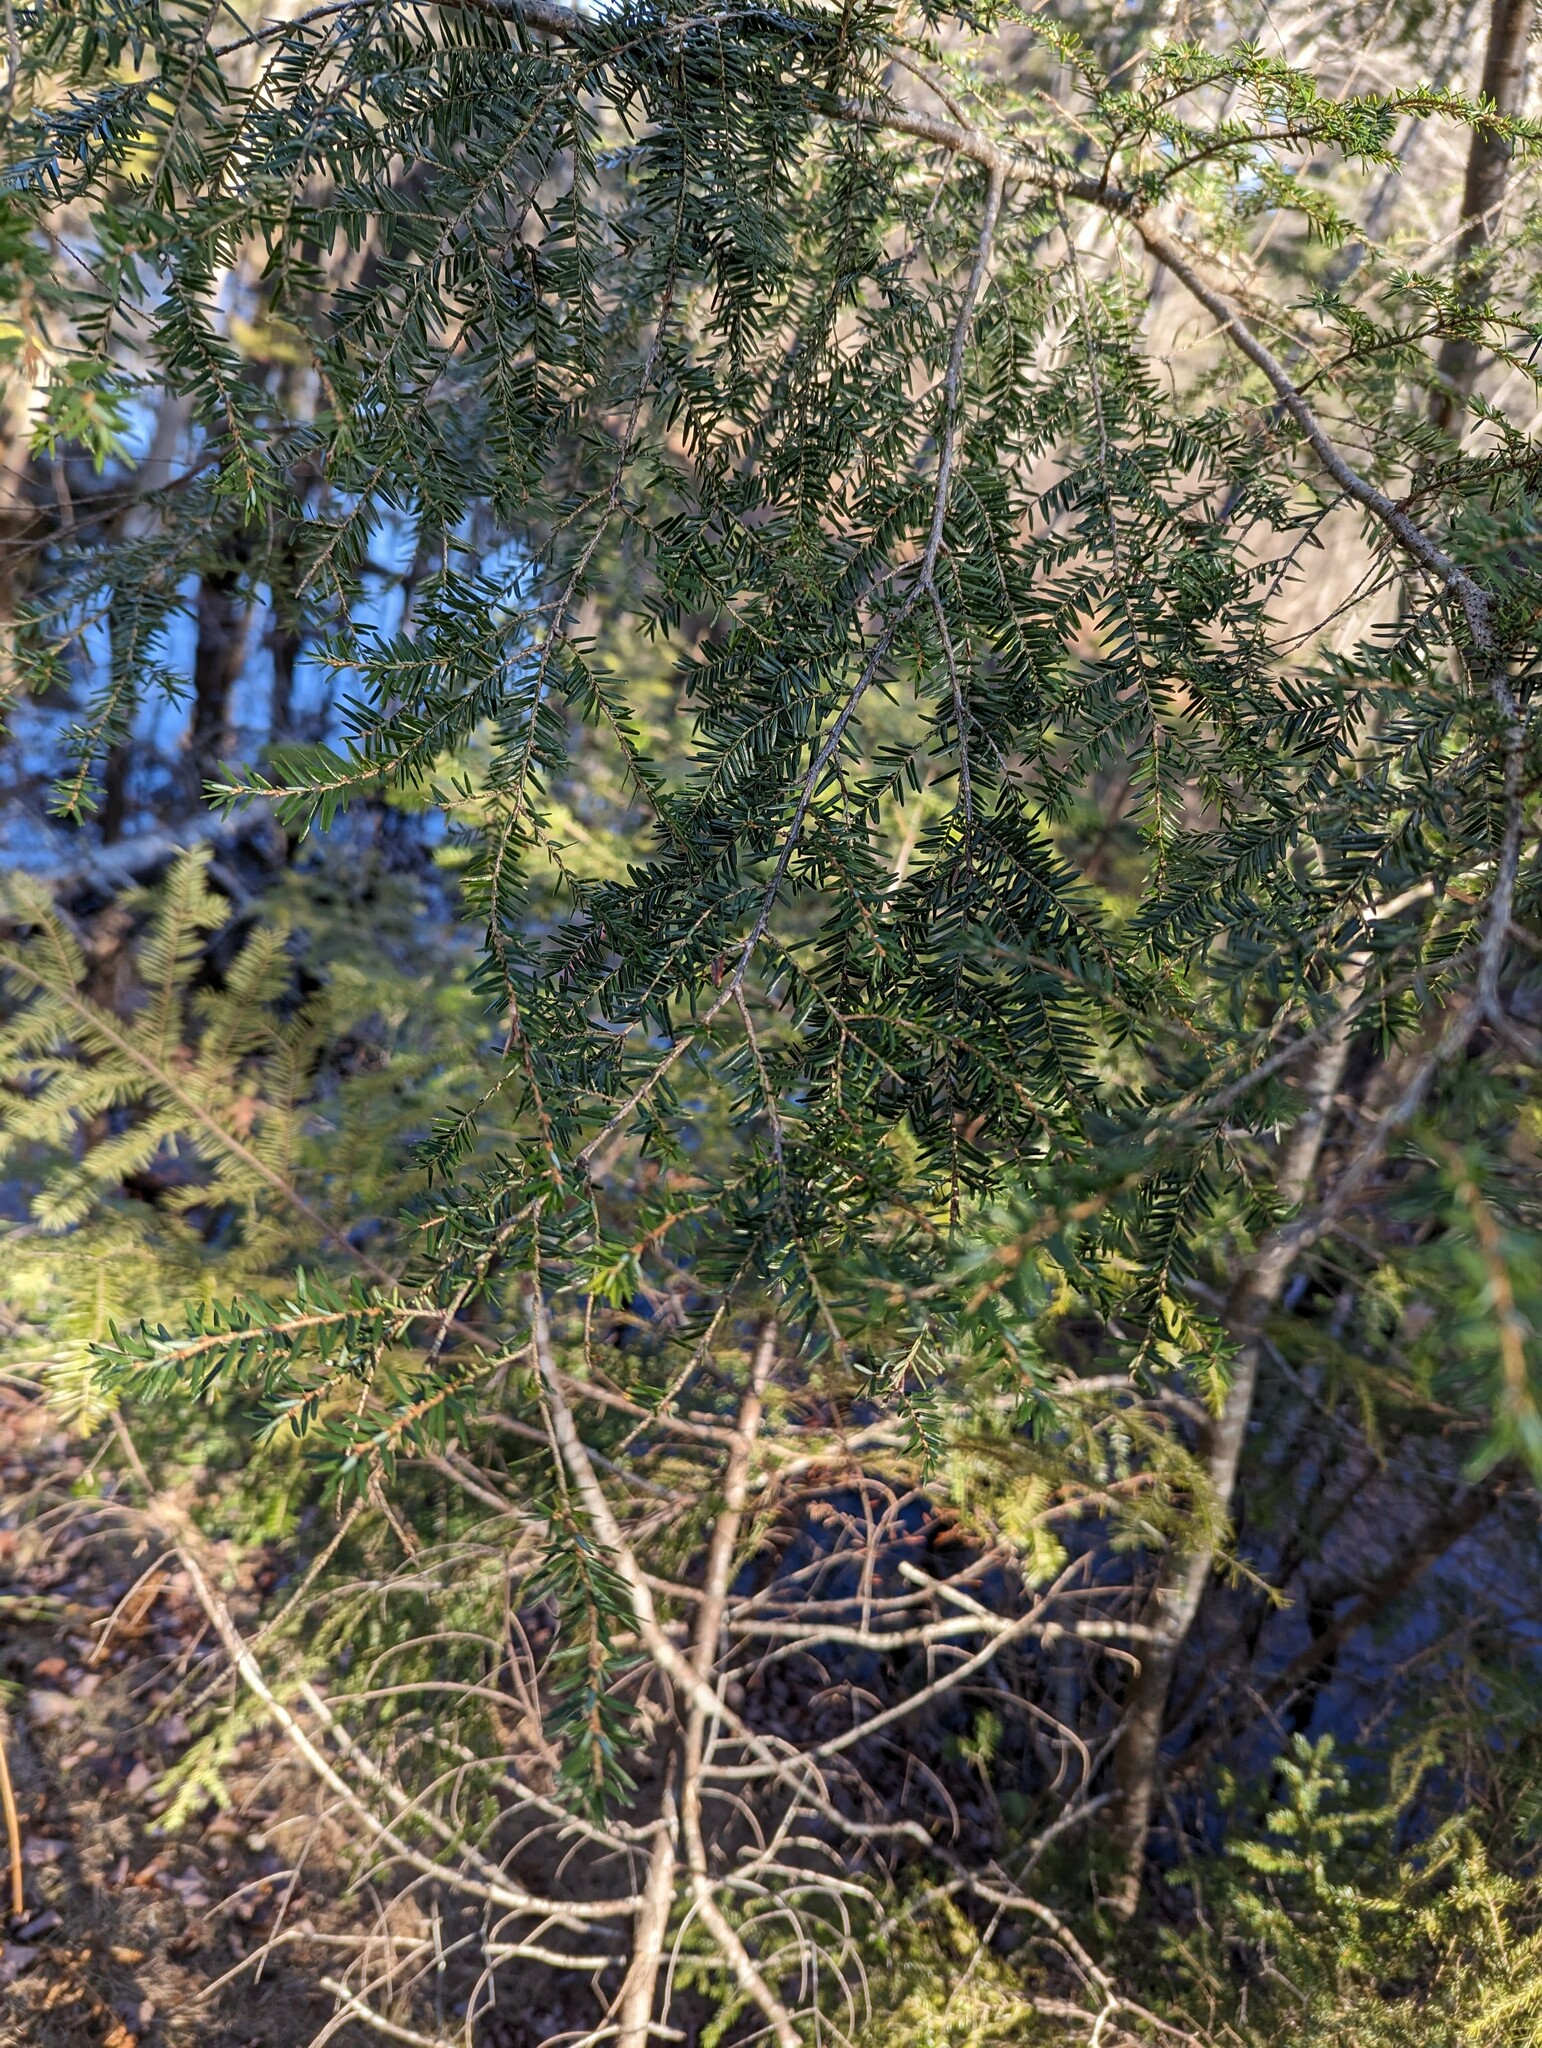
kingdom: Plantae
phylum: Tracheophyta
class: Pinopsida
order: Pinales
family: Pinaceae
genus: Tsuga
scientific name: Tsuga canadensis
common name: Eastern hemlock
